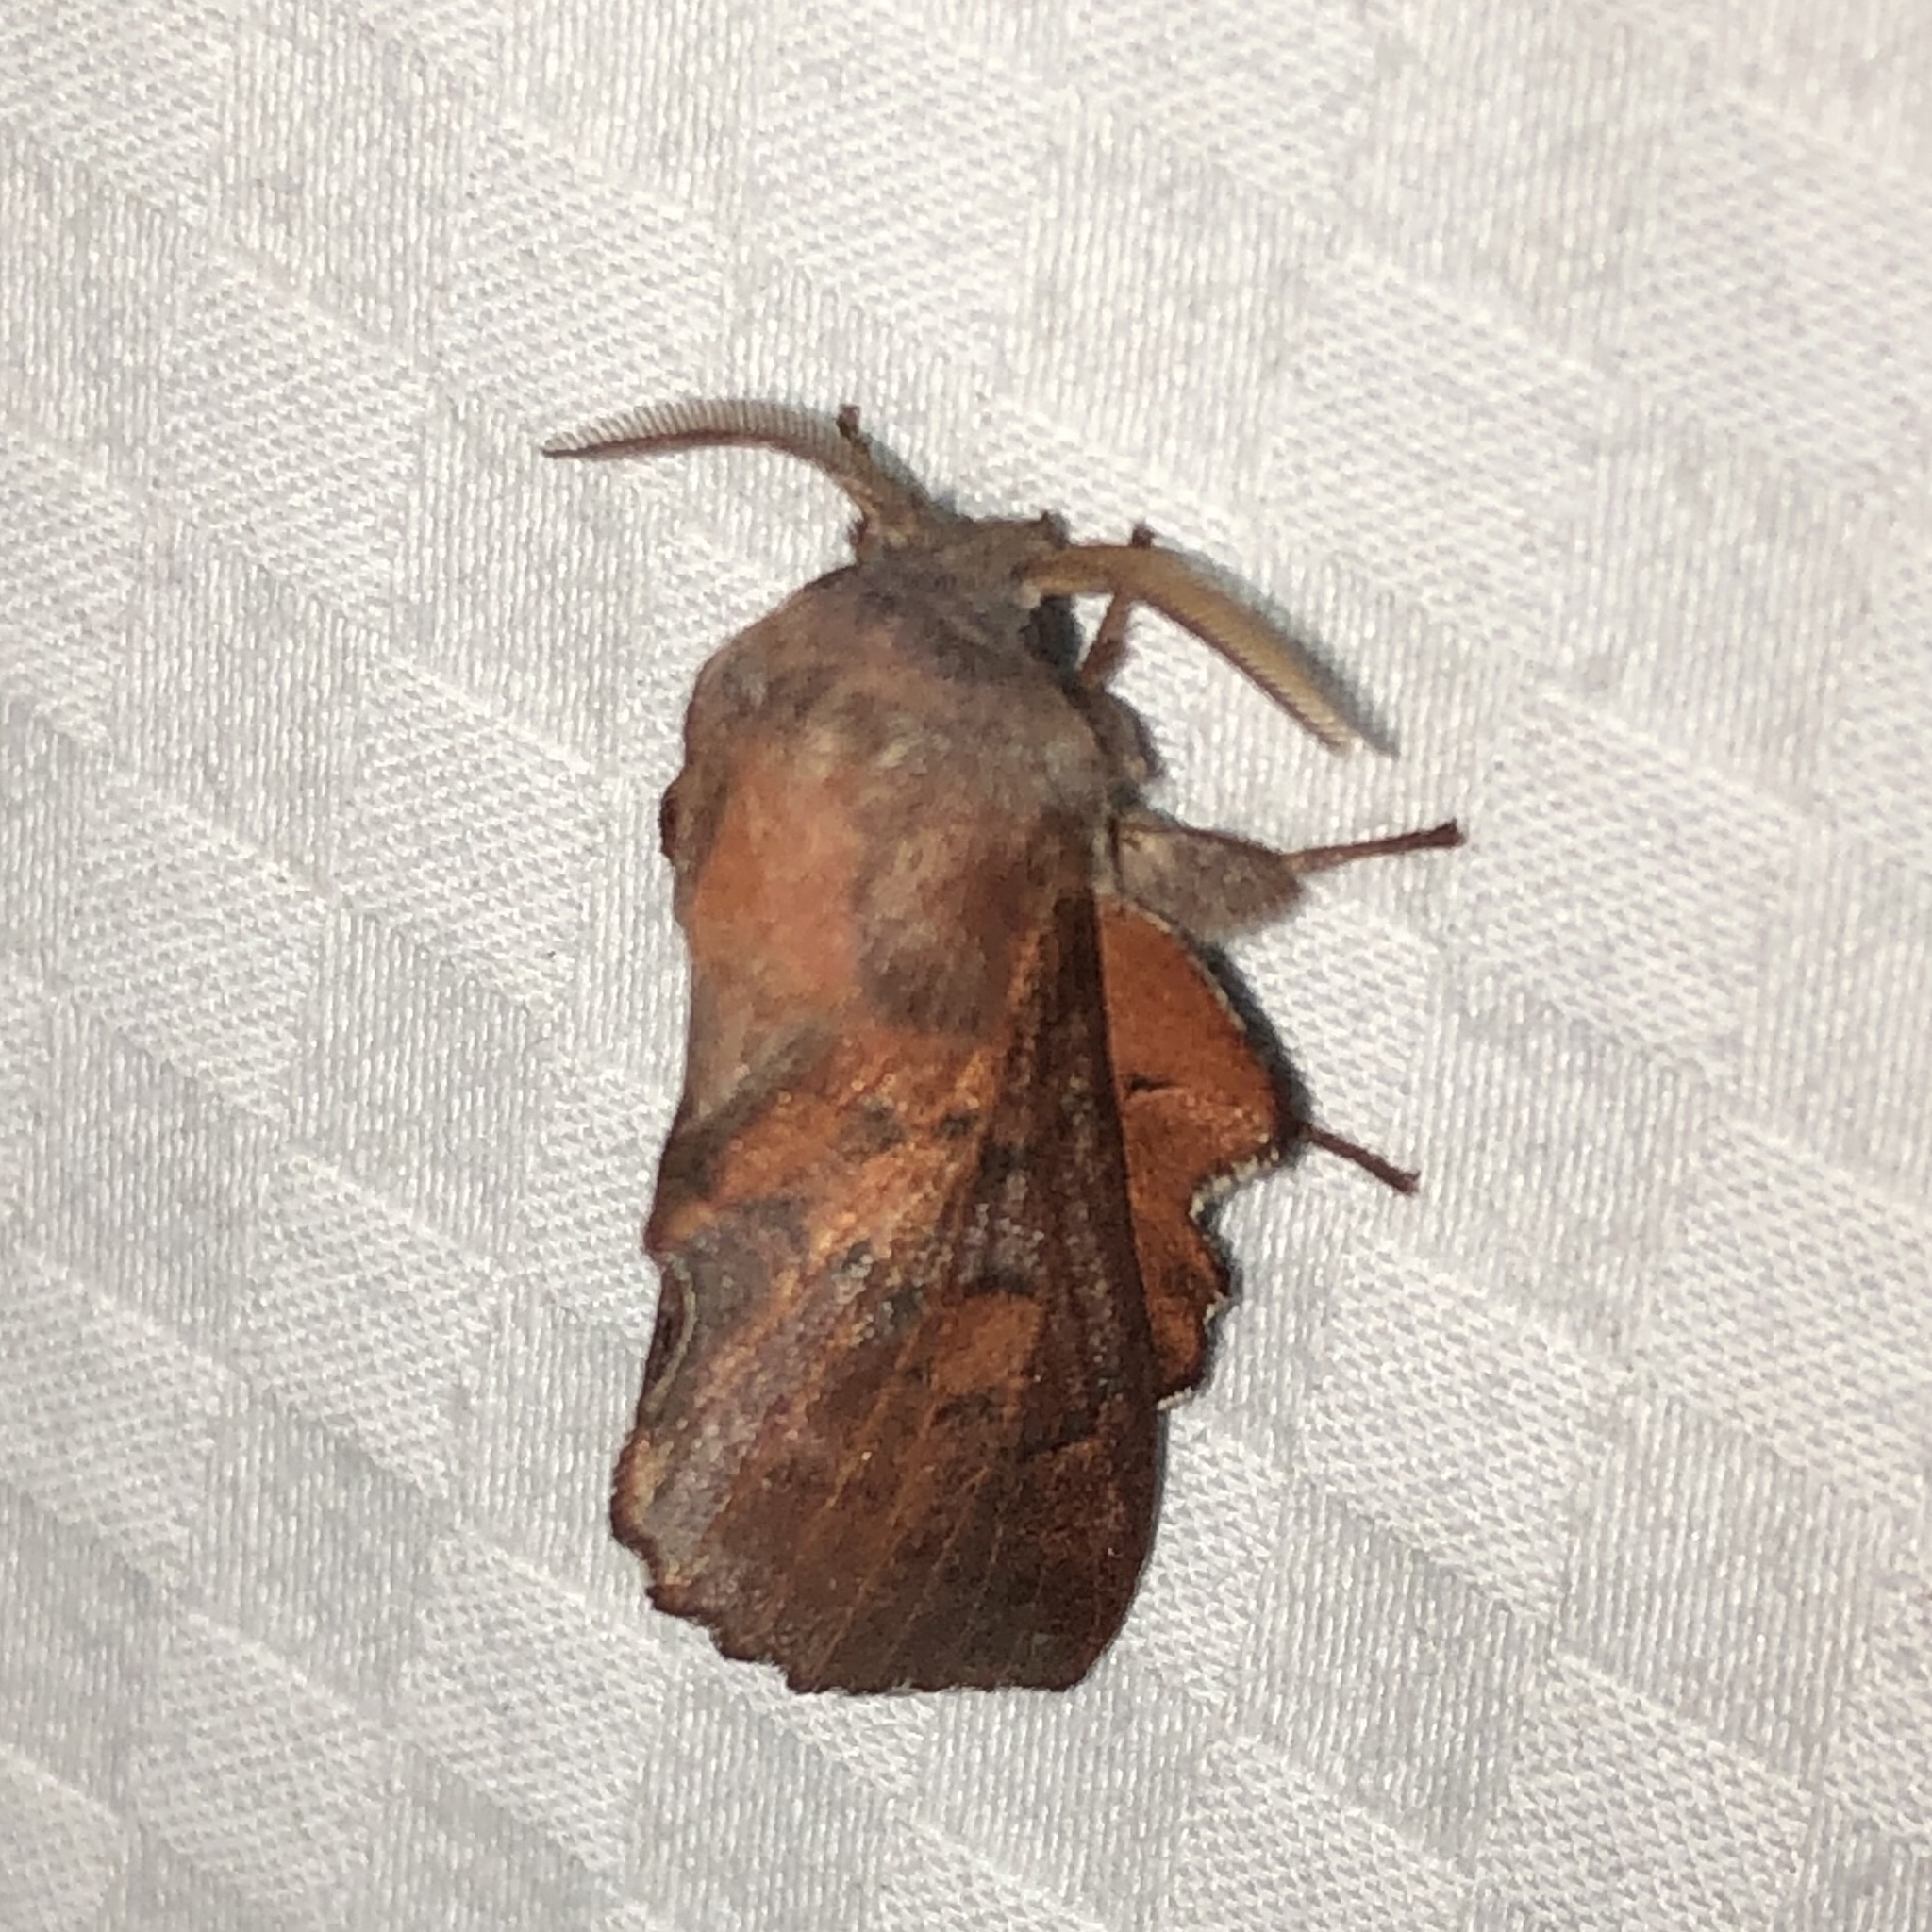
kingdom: Animalia
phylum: Arthropoda
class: Insecta
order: Lepidoptera
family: Lasiocampidae
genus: Phyllodesma
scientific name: Phyllodesma americana
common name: American lappet moth
